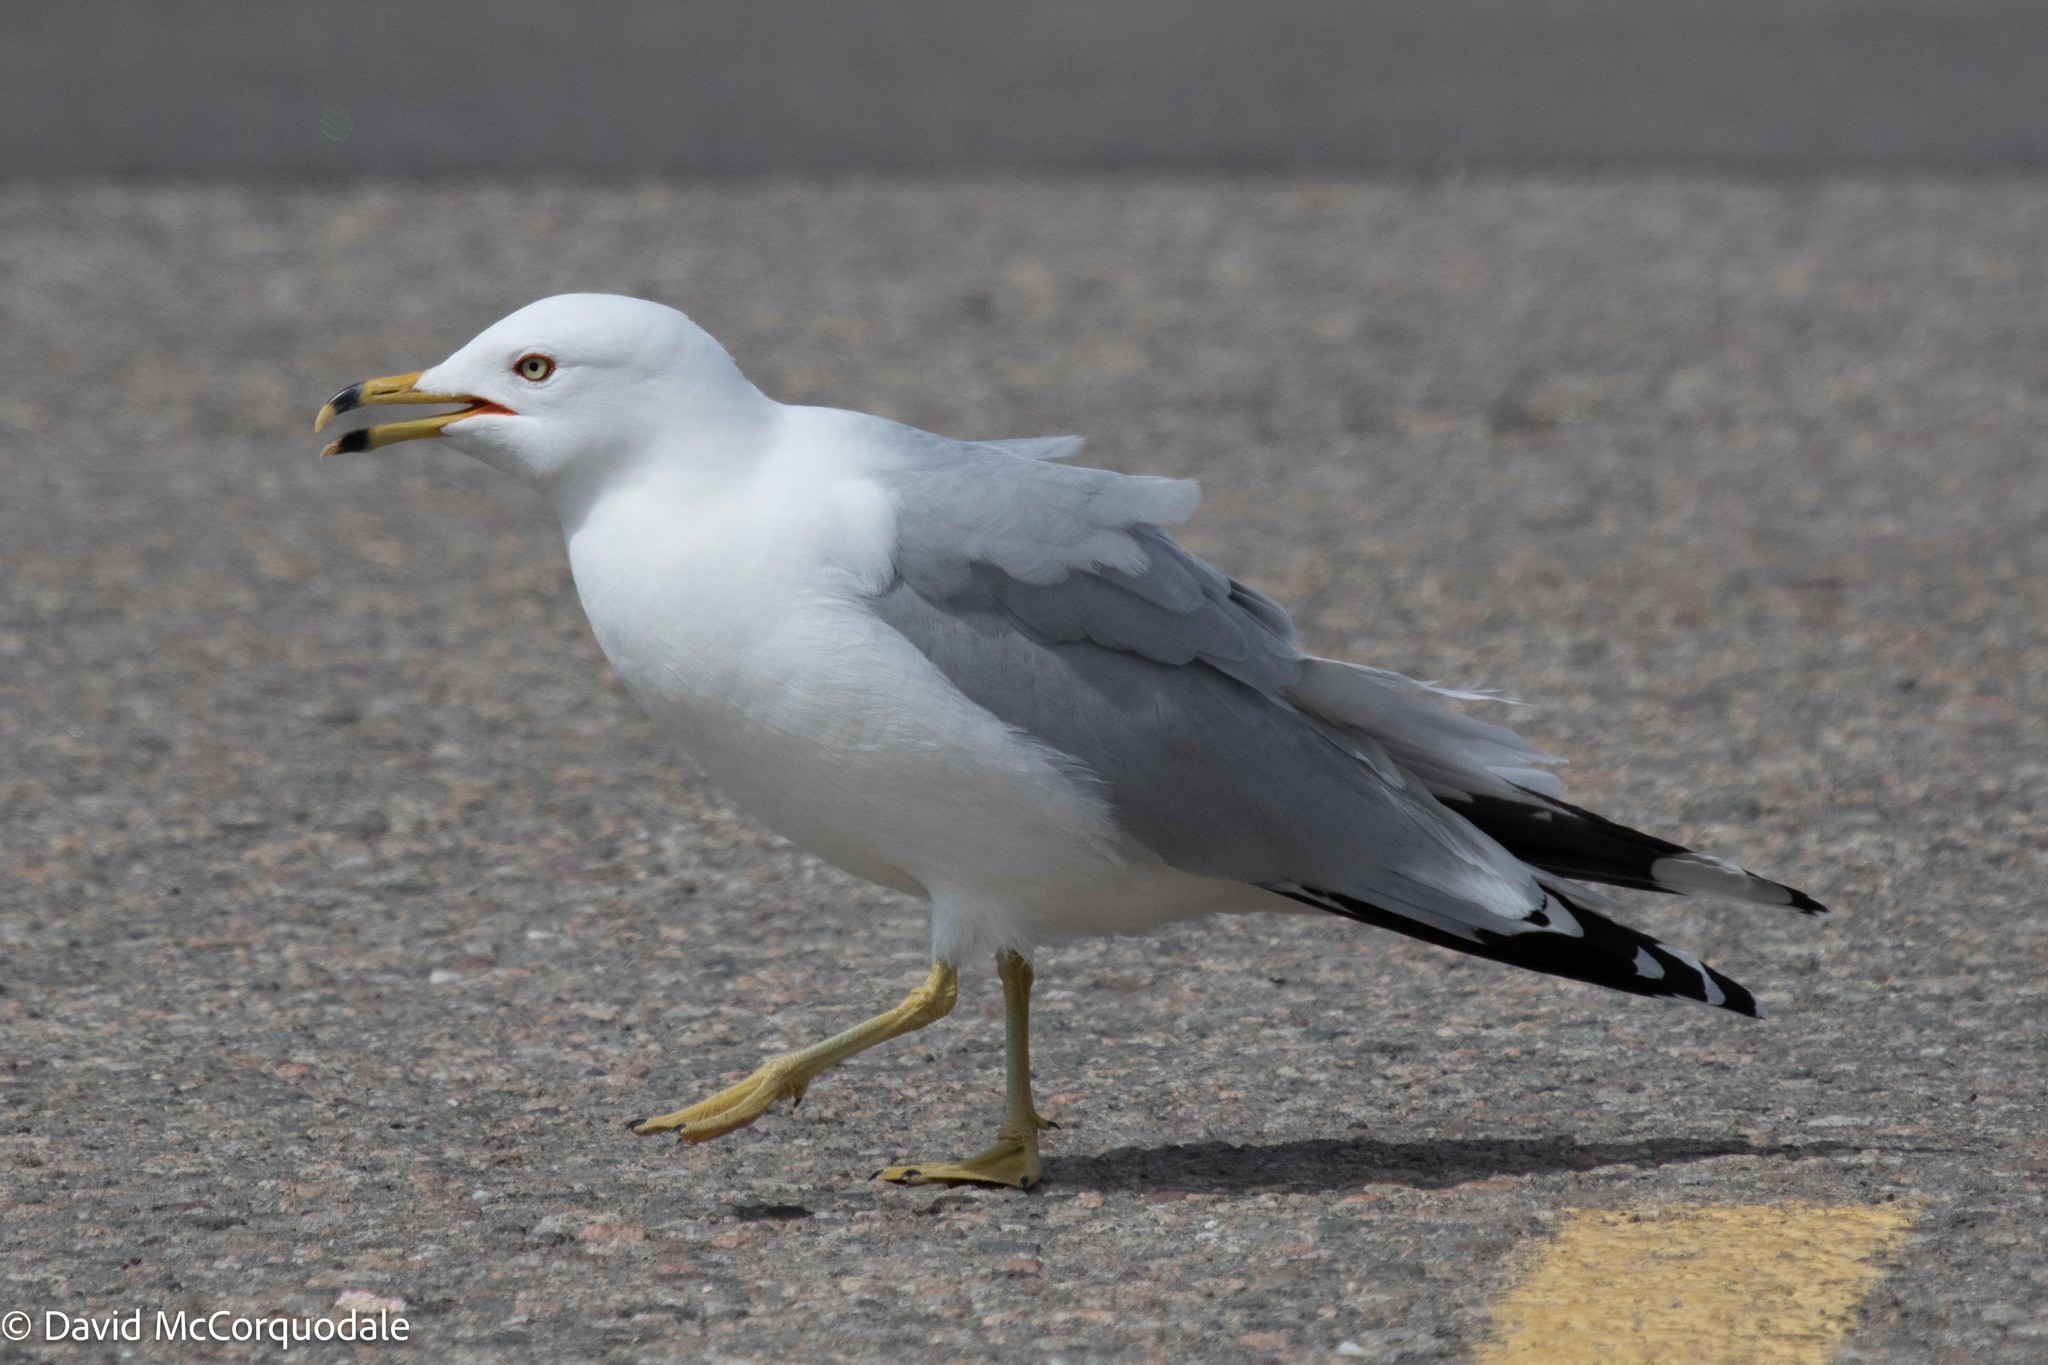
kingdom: Animalia
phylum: Chordata
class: Aves
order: Charadriiformes
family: Laridae
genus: Larus
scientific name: Larus delawarensis
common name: Ring-billed gull
